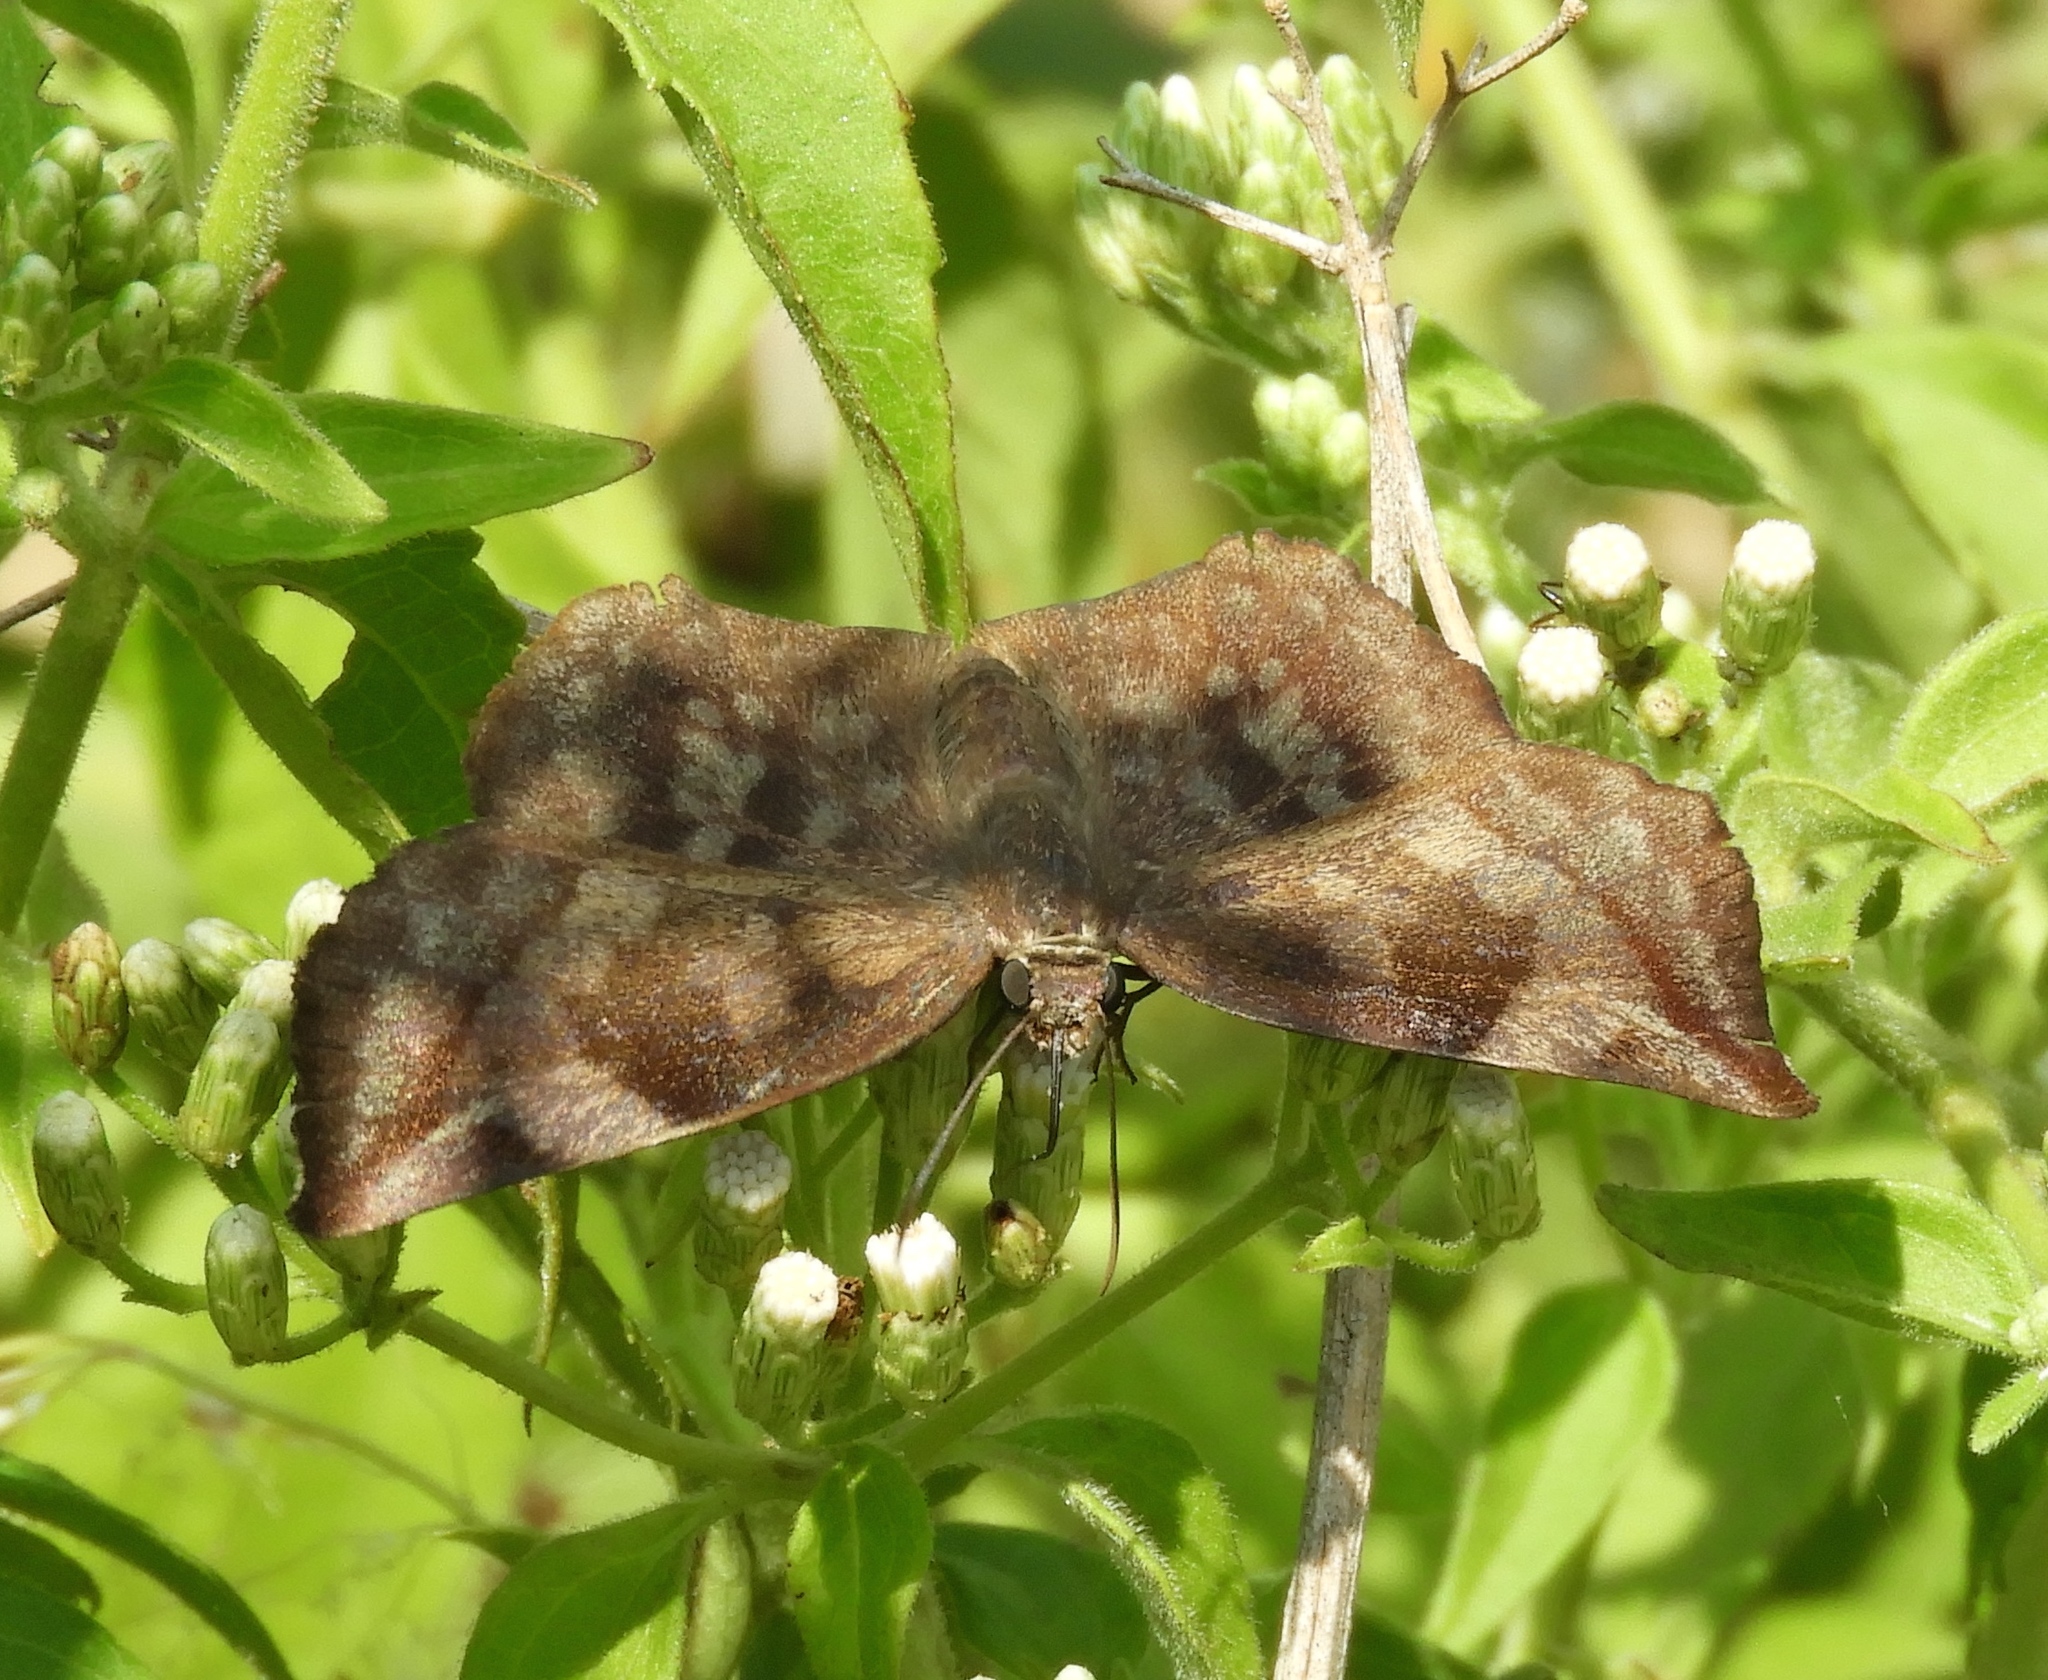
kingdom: Animalia
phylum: Arthropoda
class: Insecta
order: Lepidoptera
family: Hesperiidae
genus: Achlyodes
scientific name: Achlyodes
